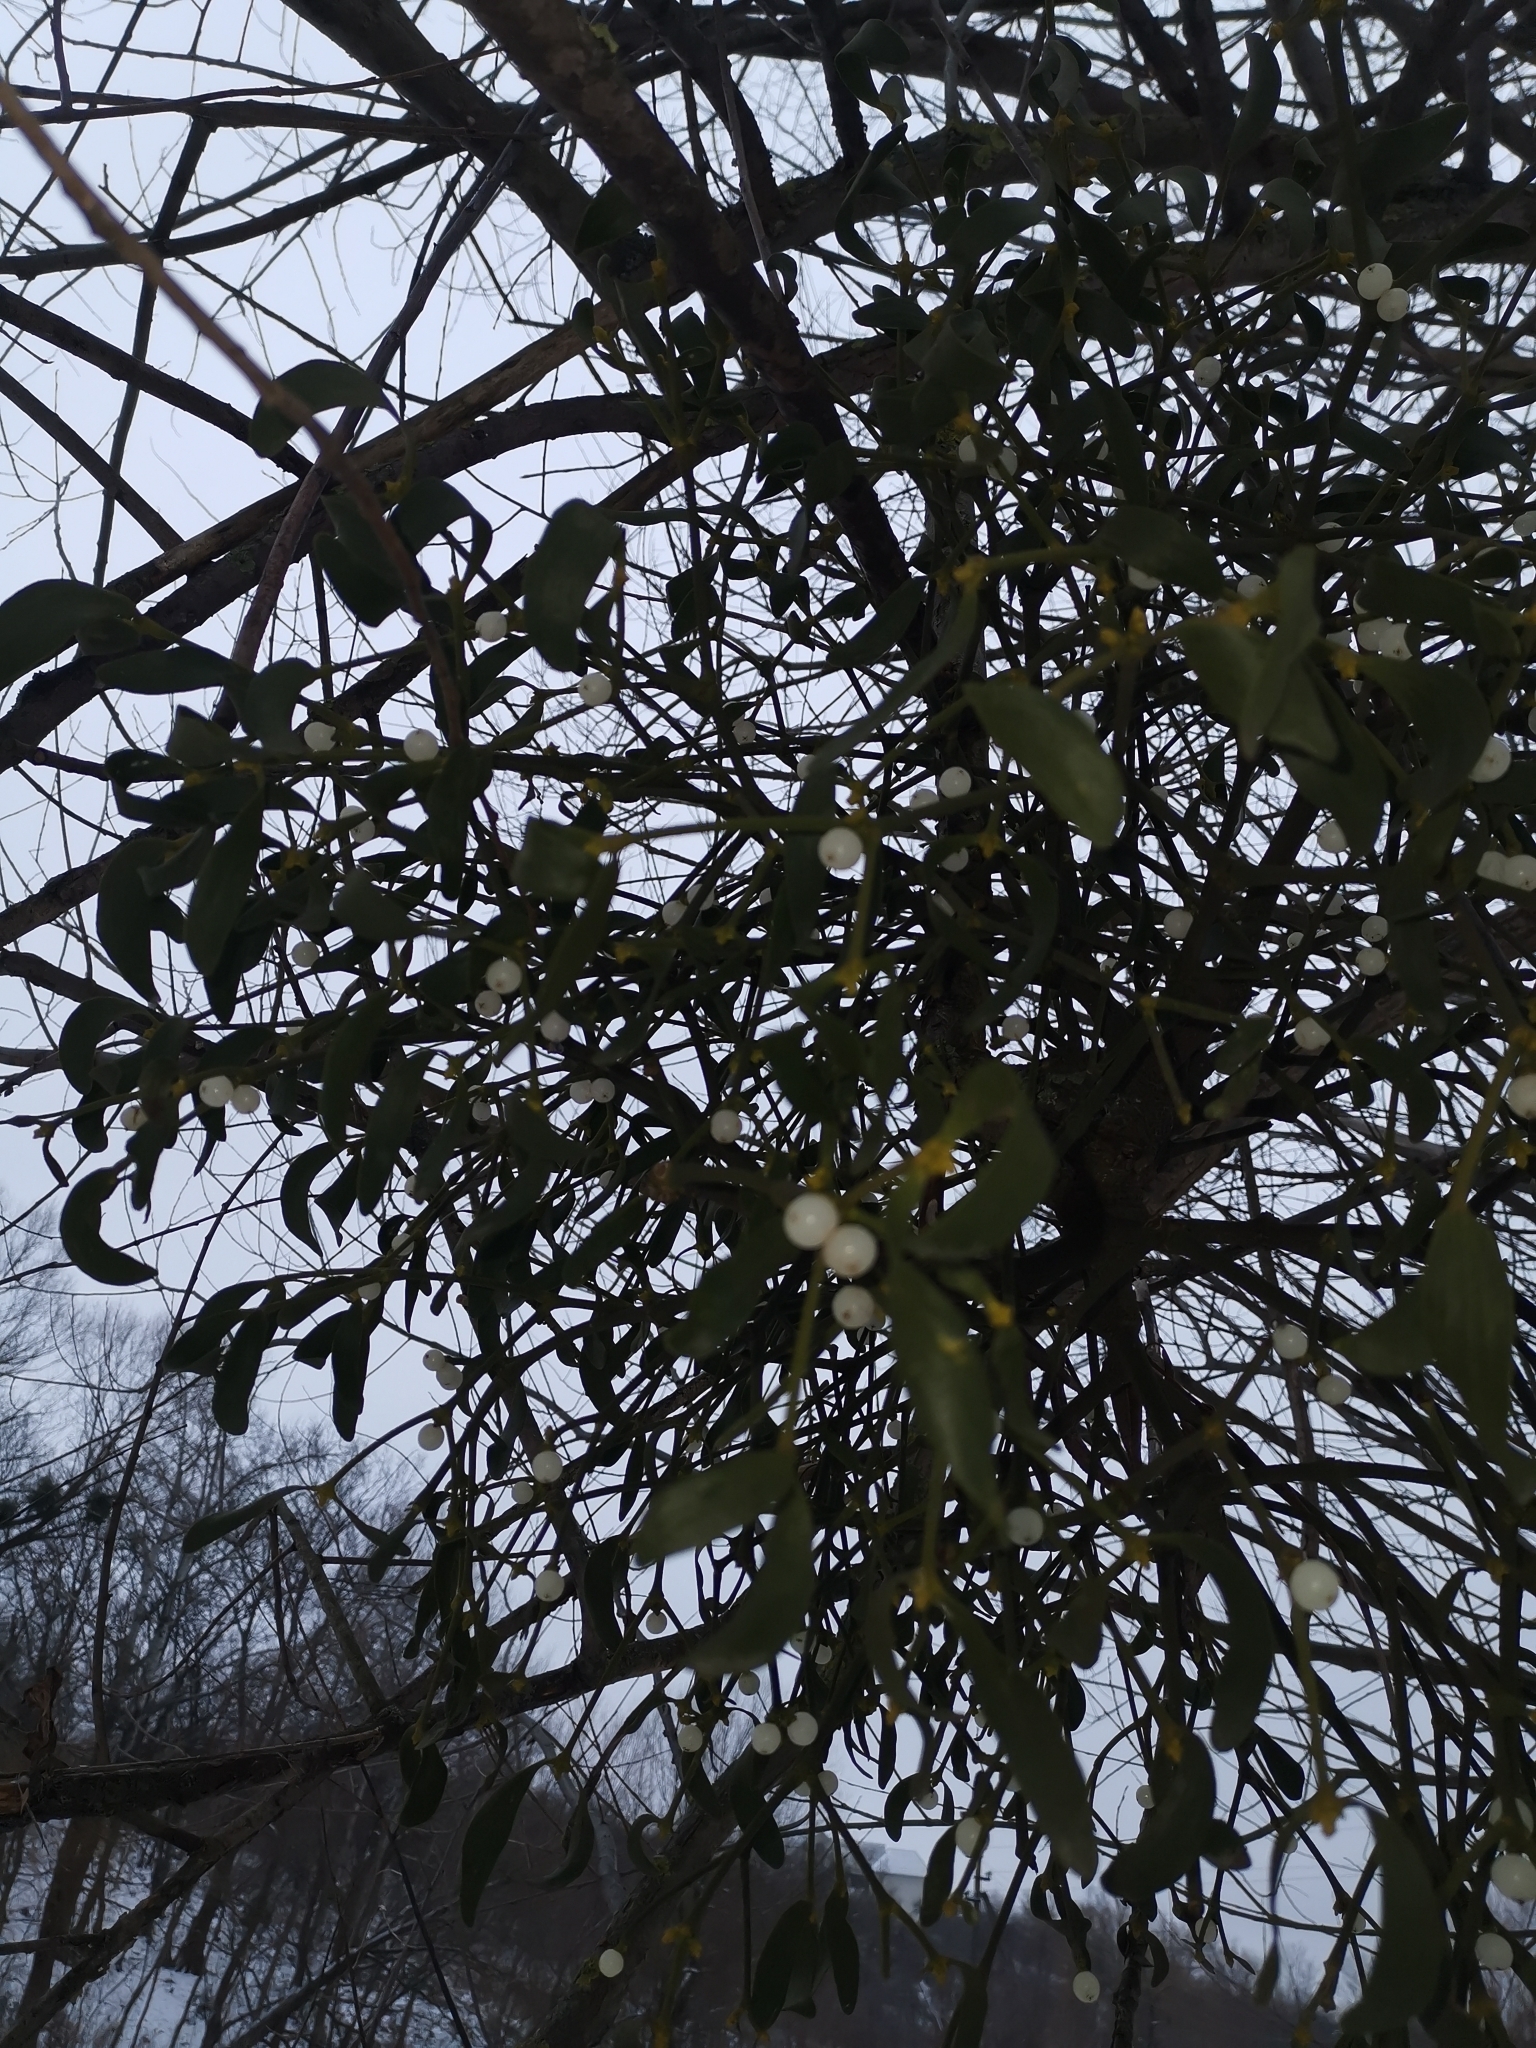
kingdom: Plantae
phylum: Tracheophyta
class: Magnoliopsida
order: Santalales
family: Viscaceae
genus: Viscum
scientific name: Viscum album
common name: Mistletoe
